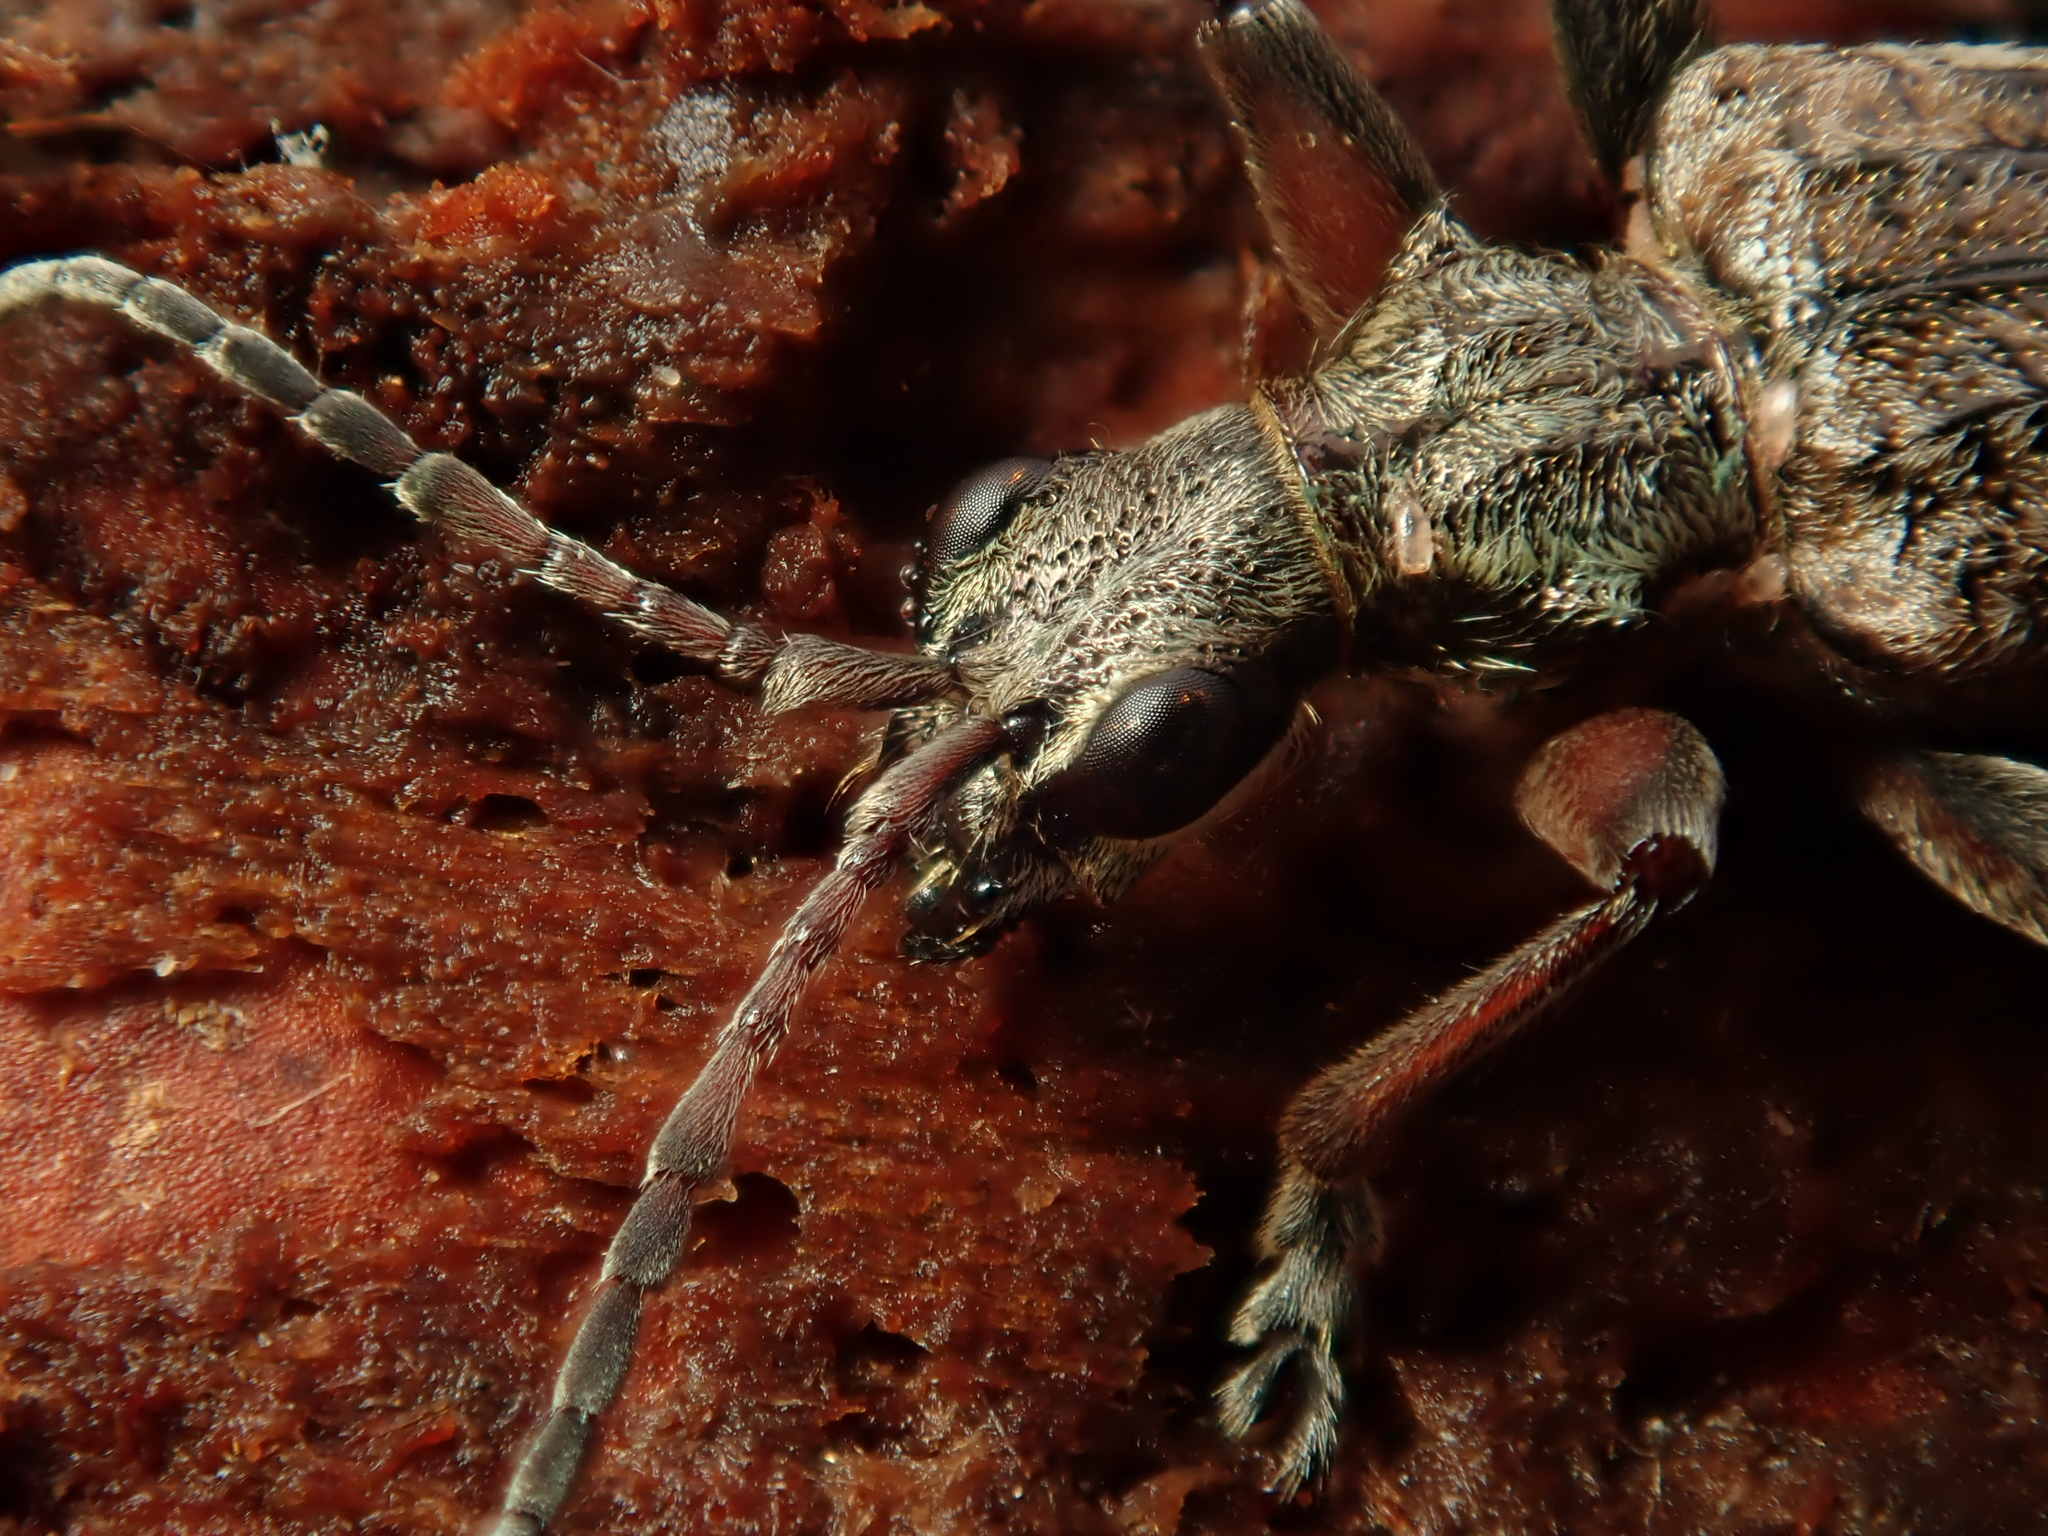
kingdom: Animalia
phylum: Arthropoda
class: Insecta
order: Coleoptera
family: Cerambycidae
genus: Rhagium
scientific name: Rhagium inquisitor
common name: Ribbed pine borer
